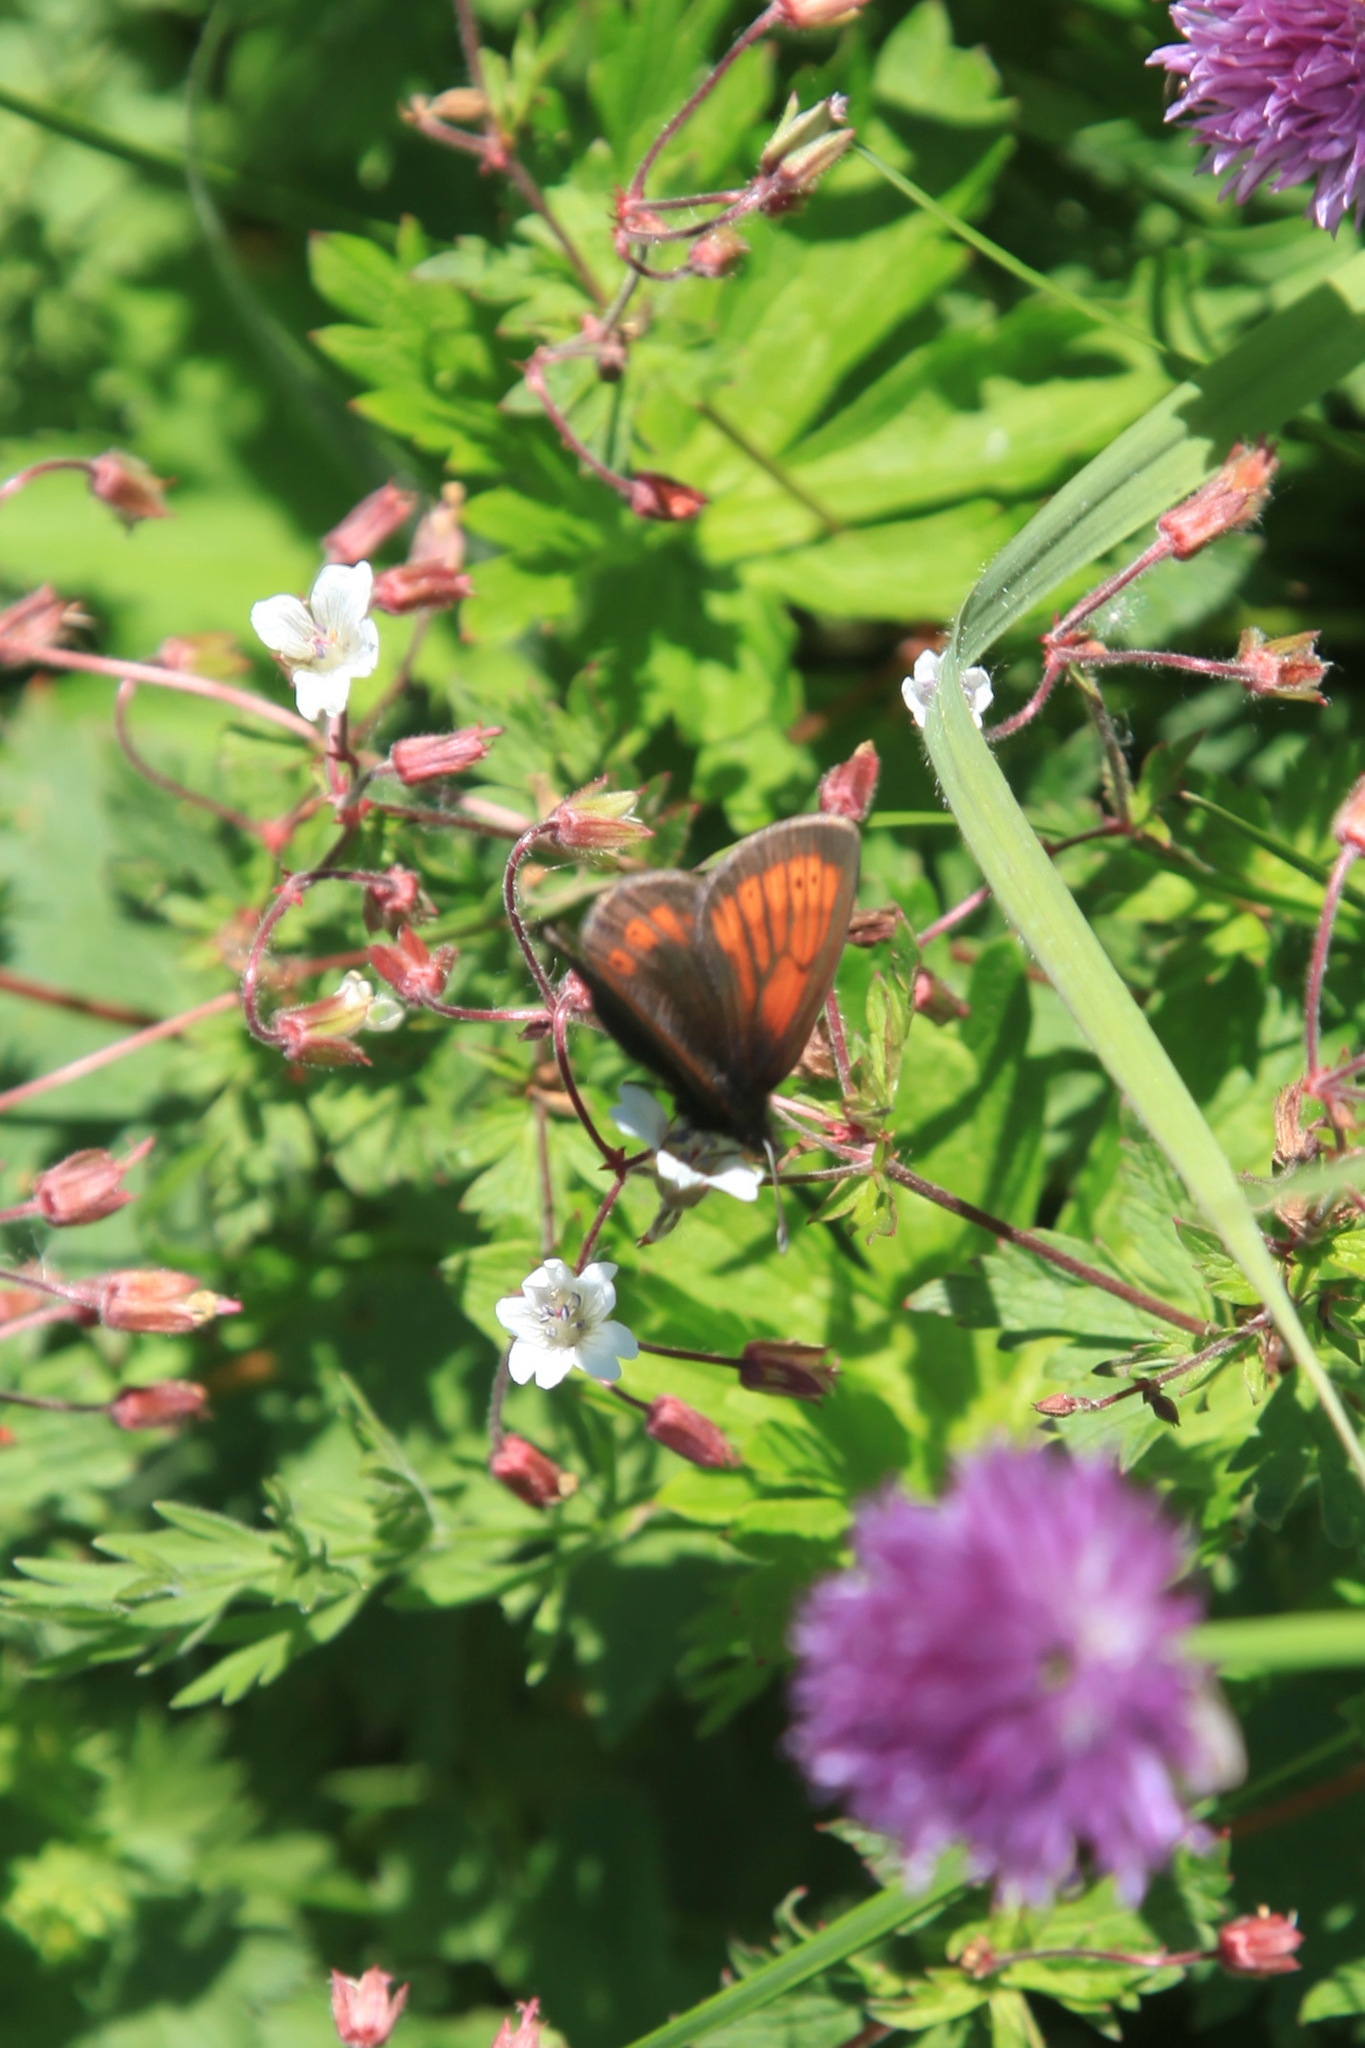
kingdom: Animalia
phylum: Arthropoda
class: Insecta
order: Lepidoptera
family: Nymphalidae
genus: Erebia
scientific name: Erebia kefersteinii
